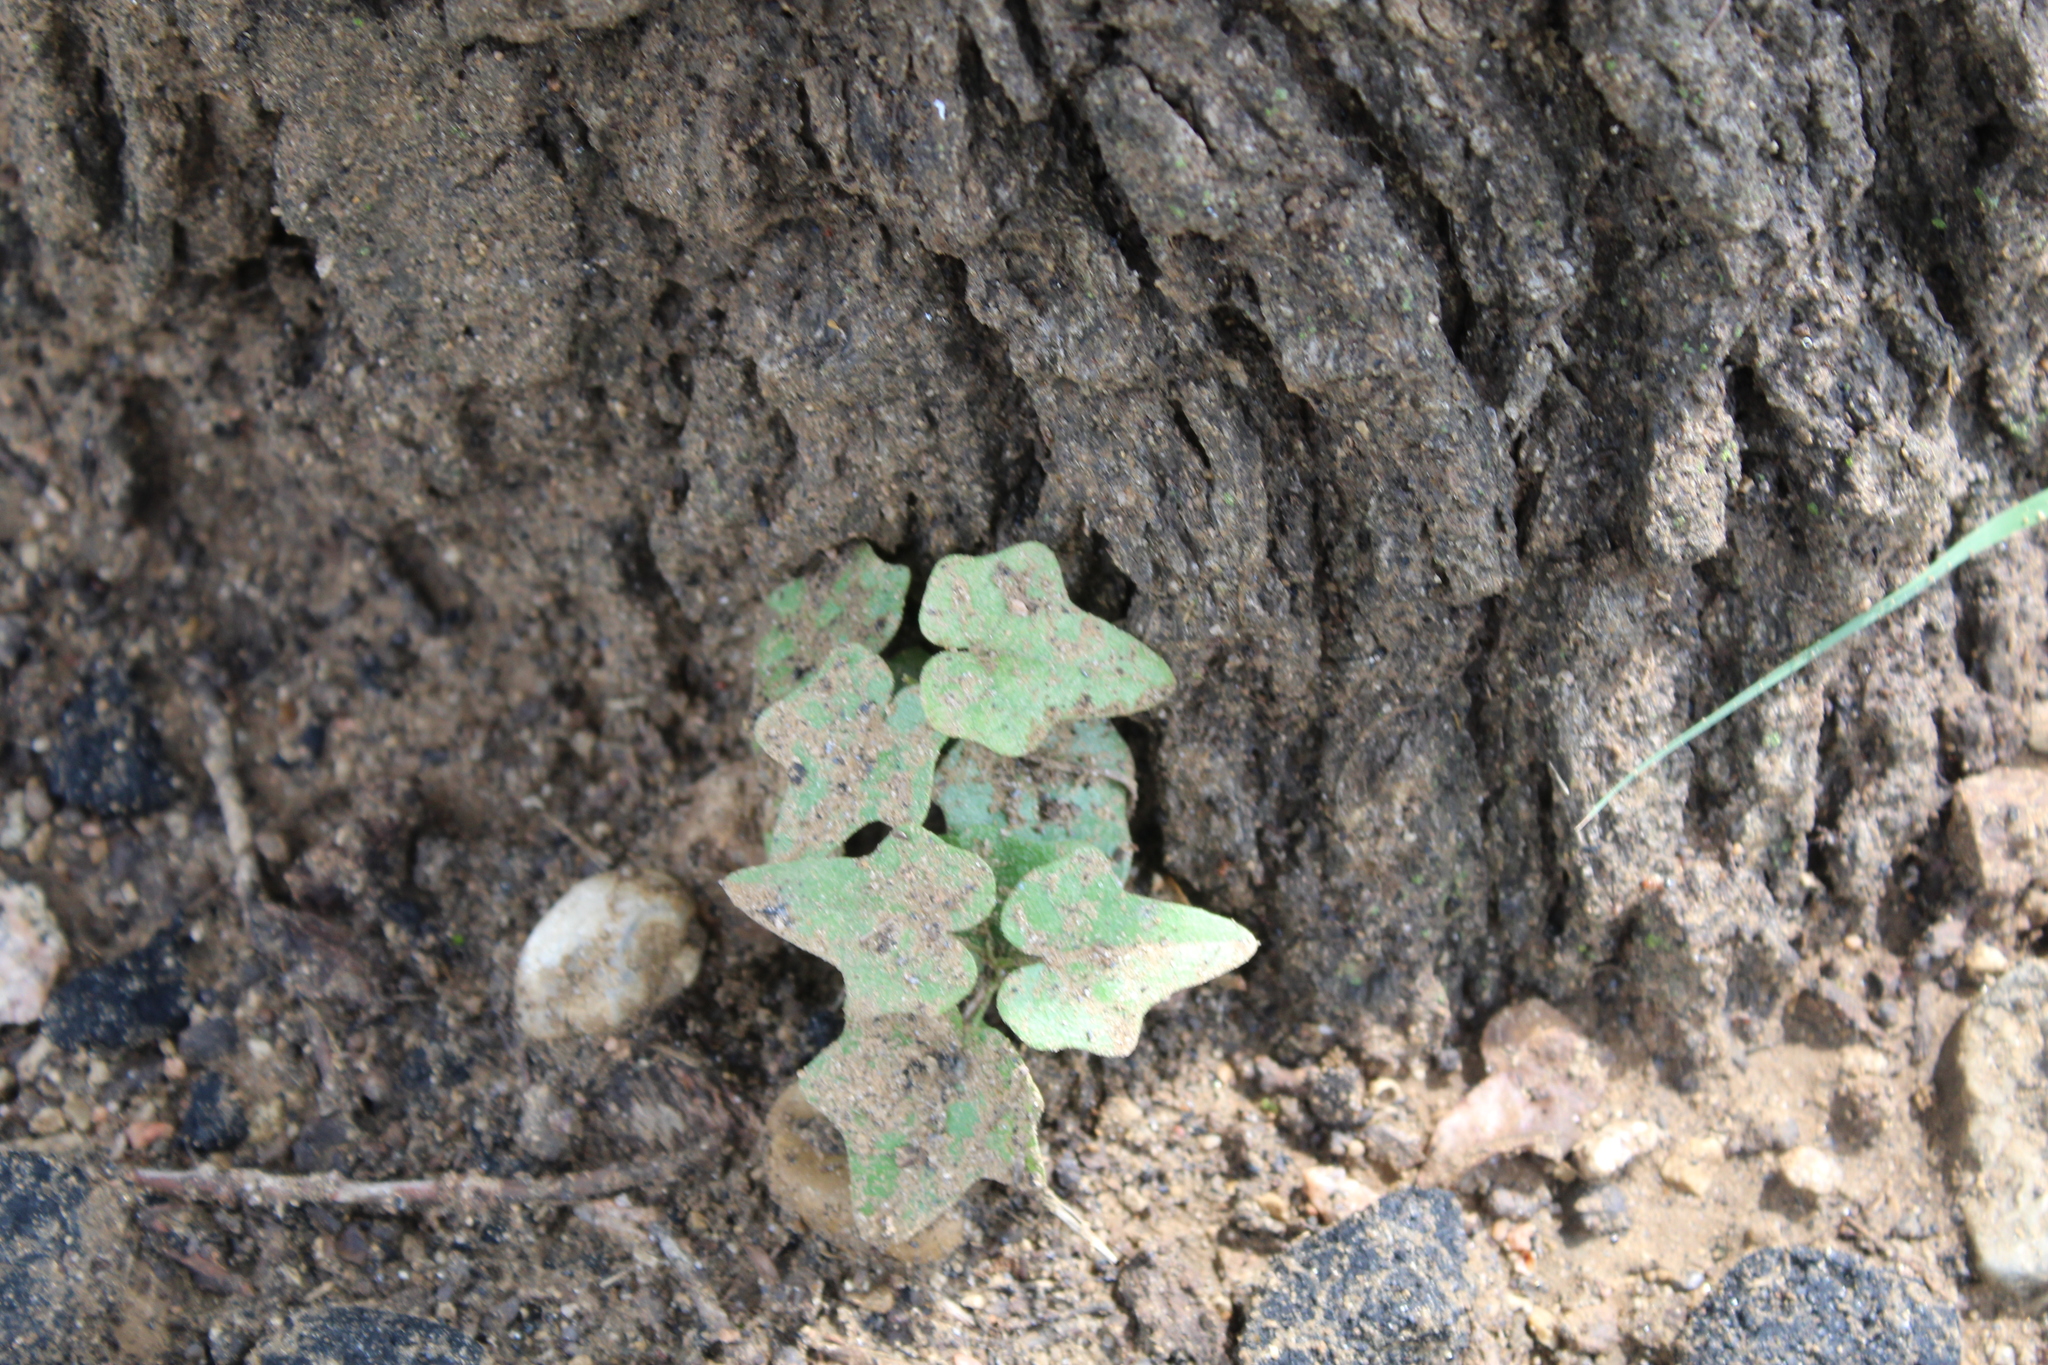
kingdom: Plantae
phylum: Tracheophyta
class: Magnoliopsida
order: Ranunculales
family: Menispermaceae
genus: Cocculus
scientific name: Cocculus carolinus
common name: Carolina moonseed
